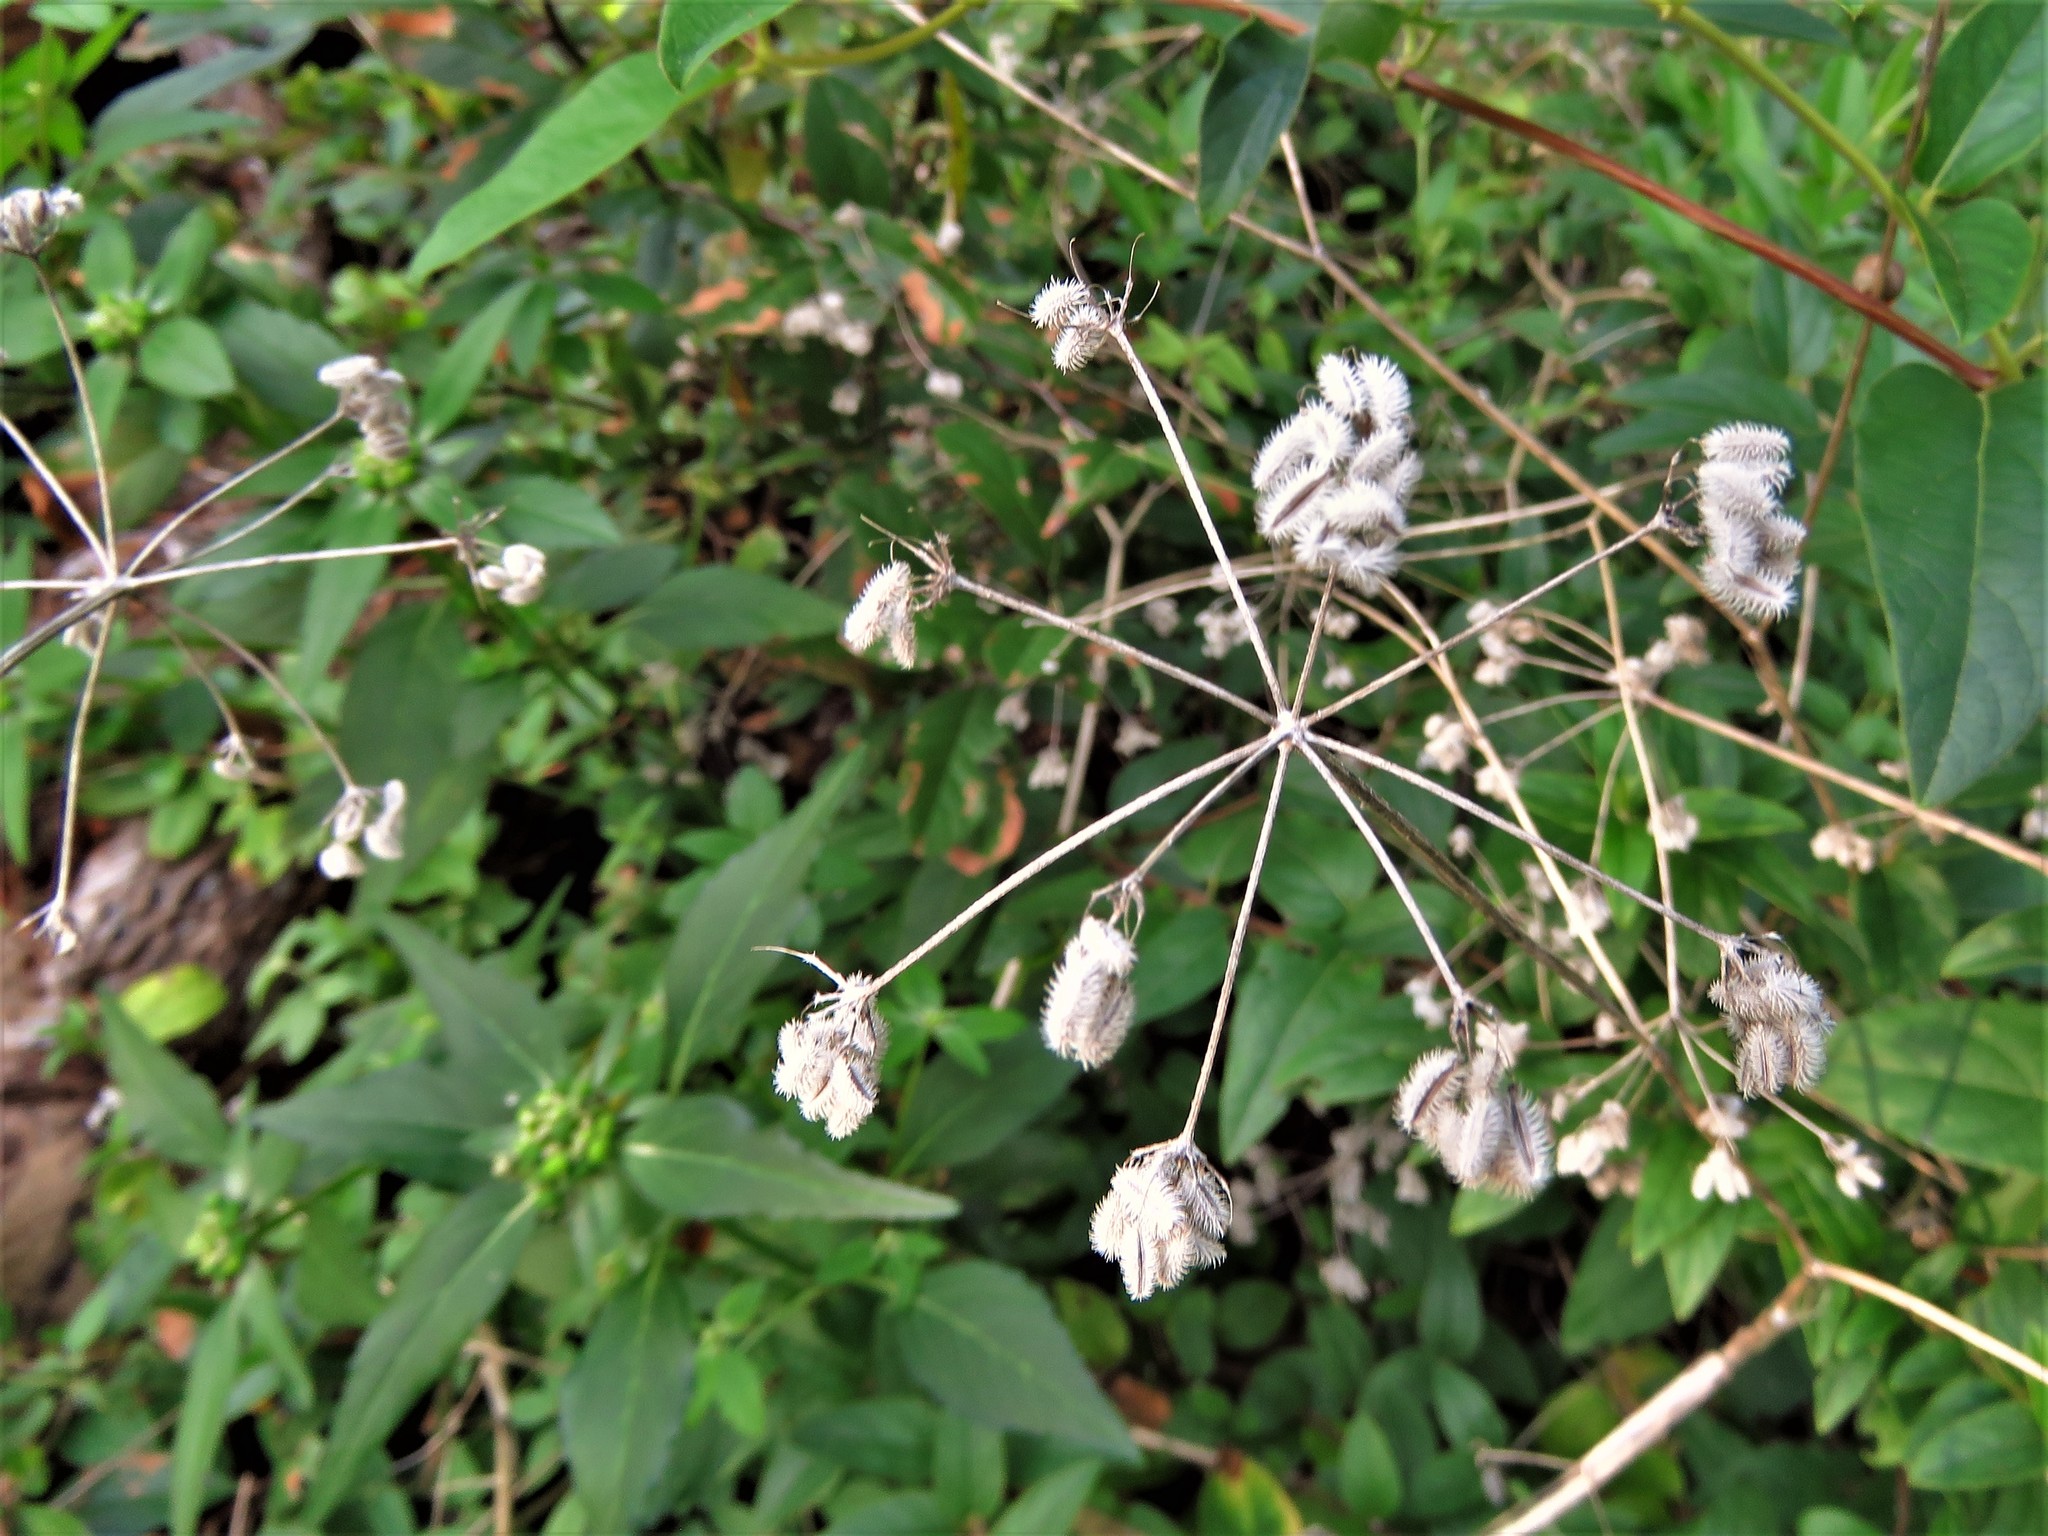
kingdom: Plantae
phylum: Tracheophyta
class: Magnoliopsida
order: Apiales
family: Apiaceae
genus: Torilis
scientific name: Torilis arvensis
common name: Spreading hedge-parsley
